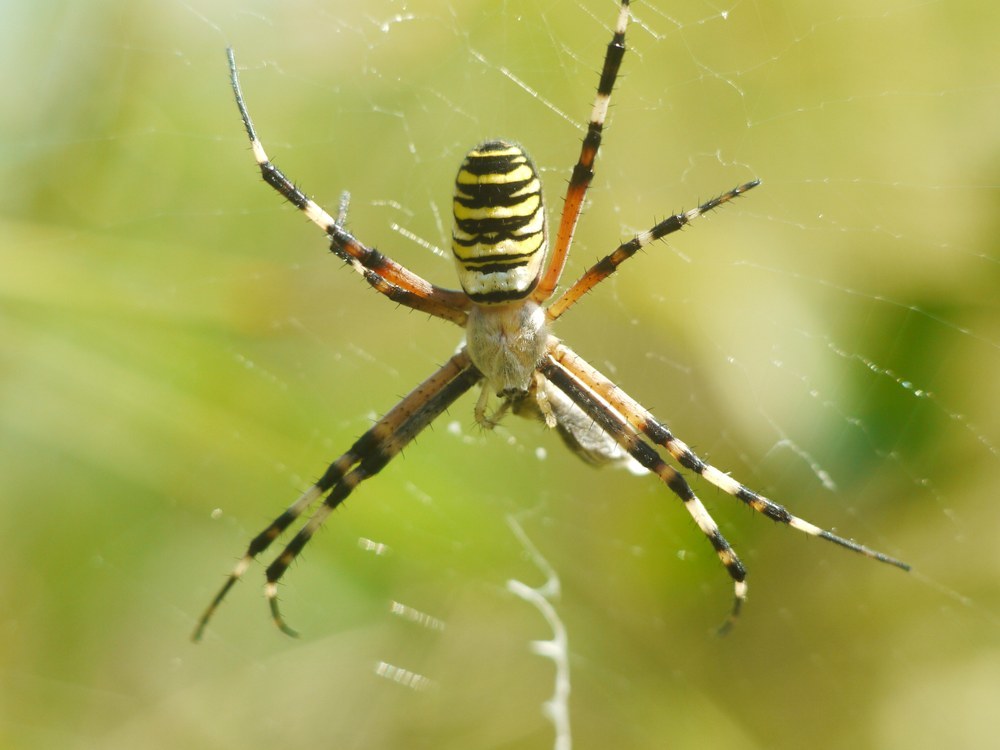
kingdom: Animalia
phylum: Arthropoda
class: Arachnida
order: Araneae
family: Araneidae
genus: Argiope
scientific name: Argiope bruennichi
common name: Wasp spider
